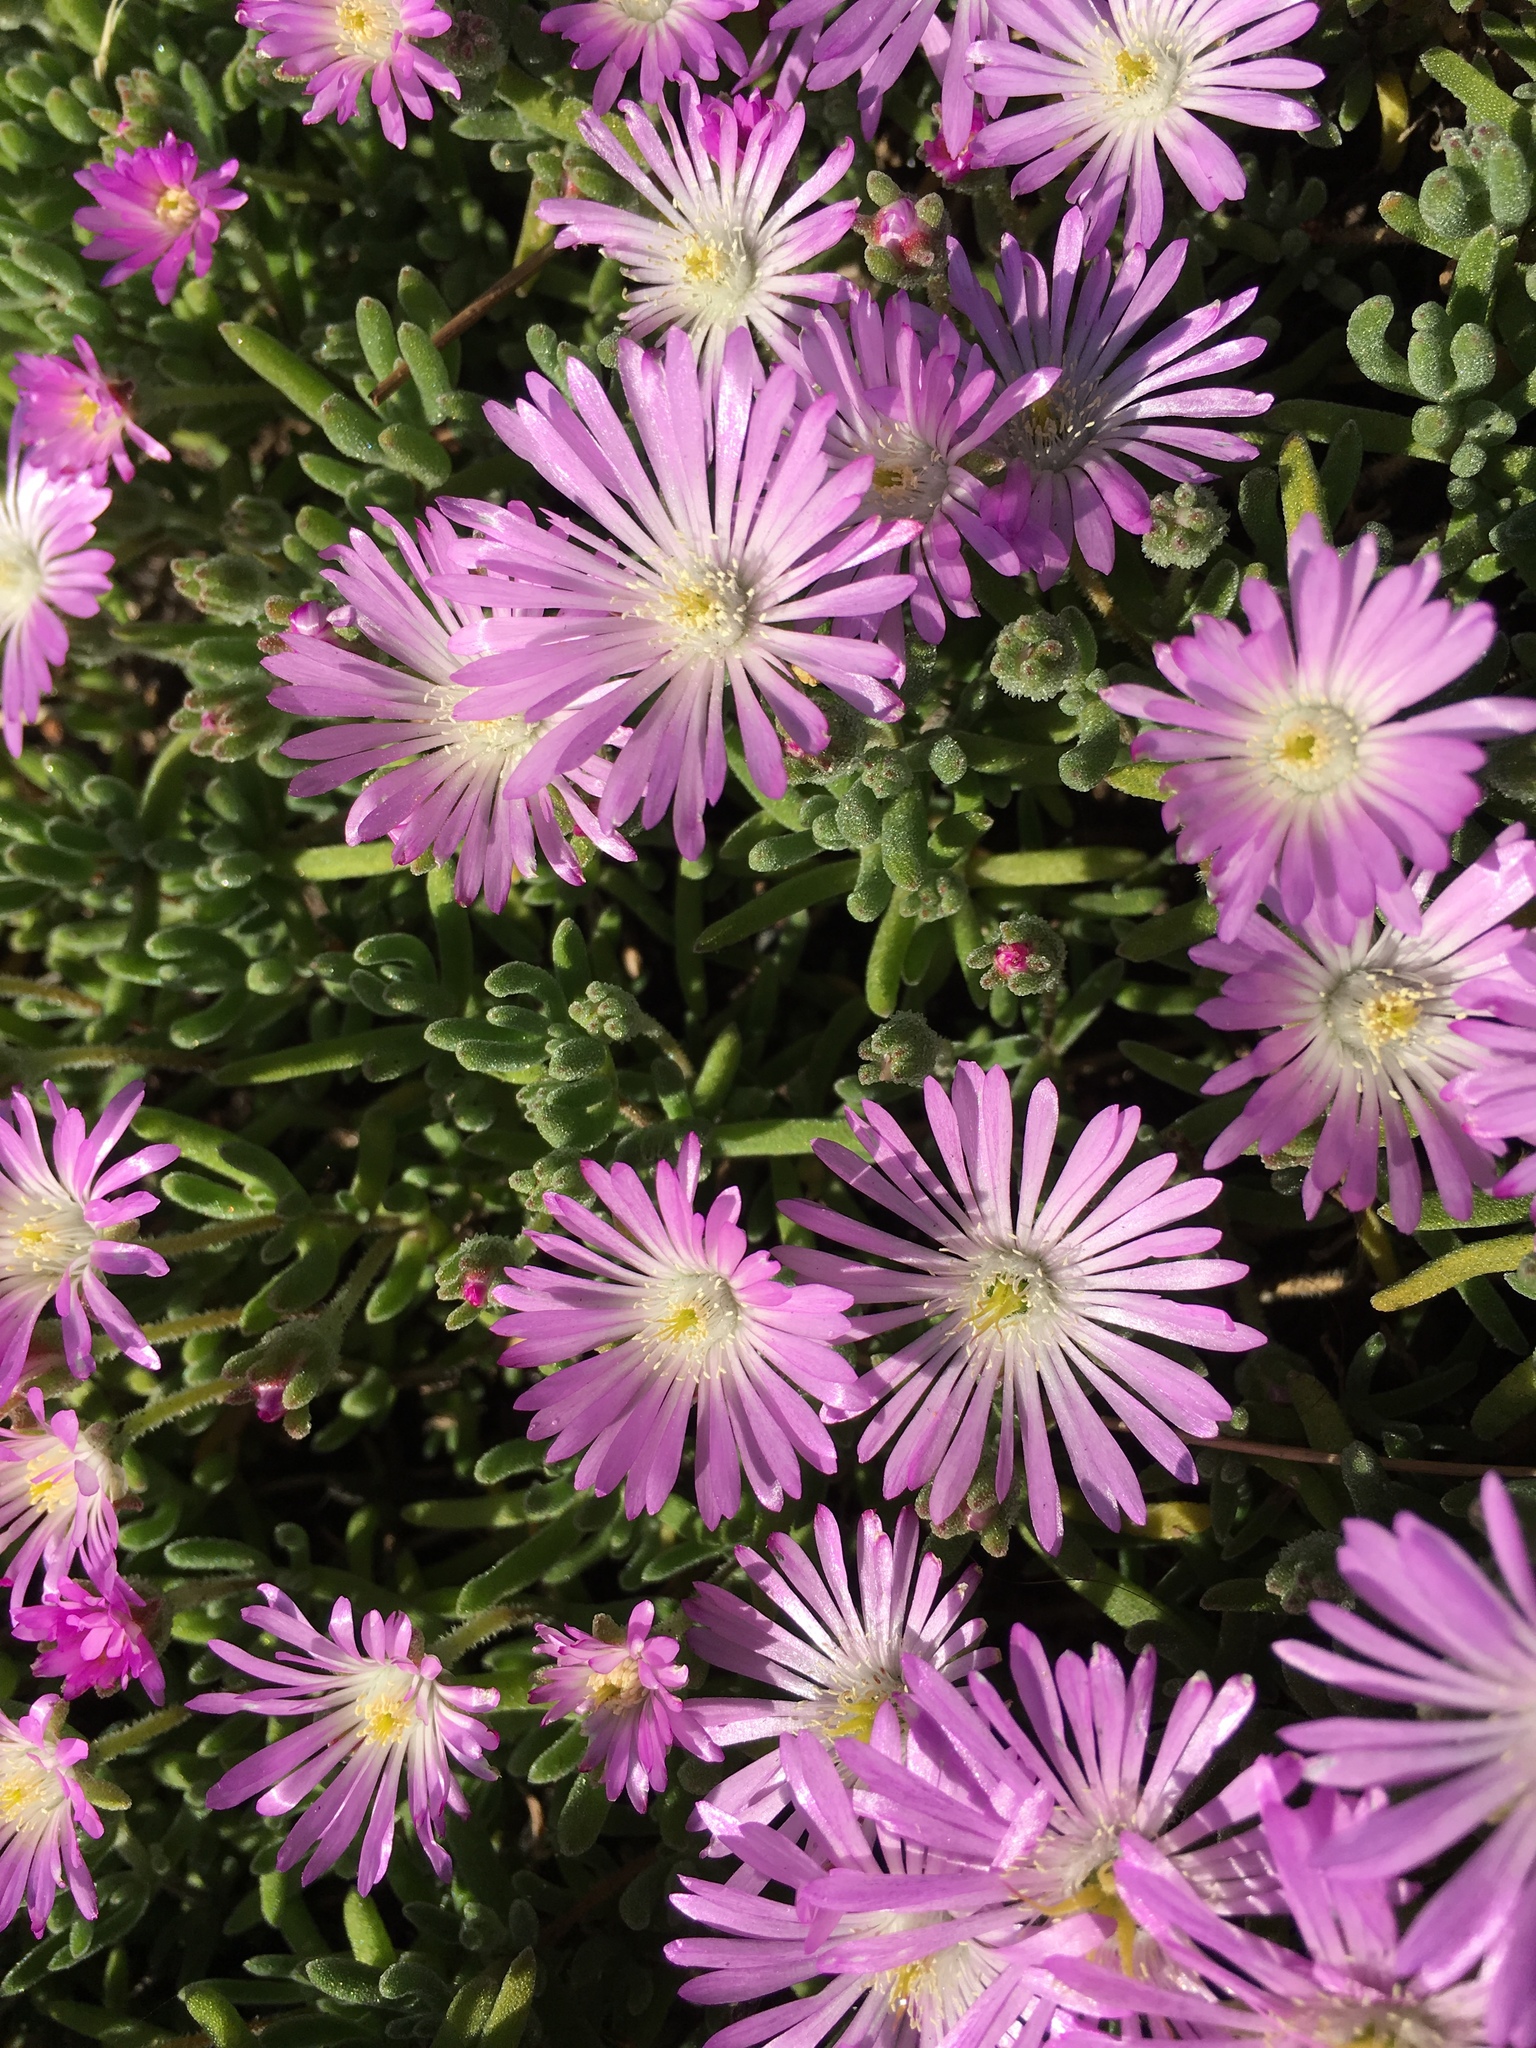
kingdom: Plantae
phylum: Tracheophyta
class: Magnoliopsida
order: Caryophyllales
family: Aizoaceae
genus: Drosanthemum
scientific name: Drosanthemum floribundum
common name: Pale dewplant
